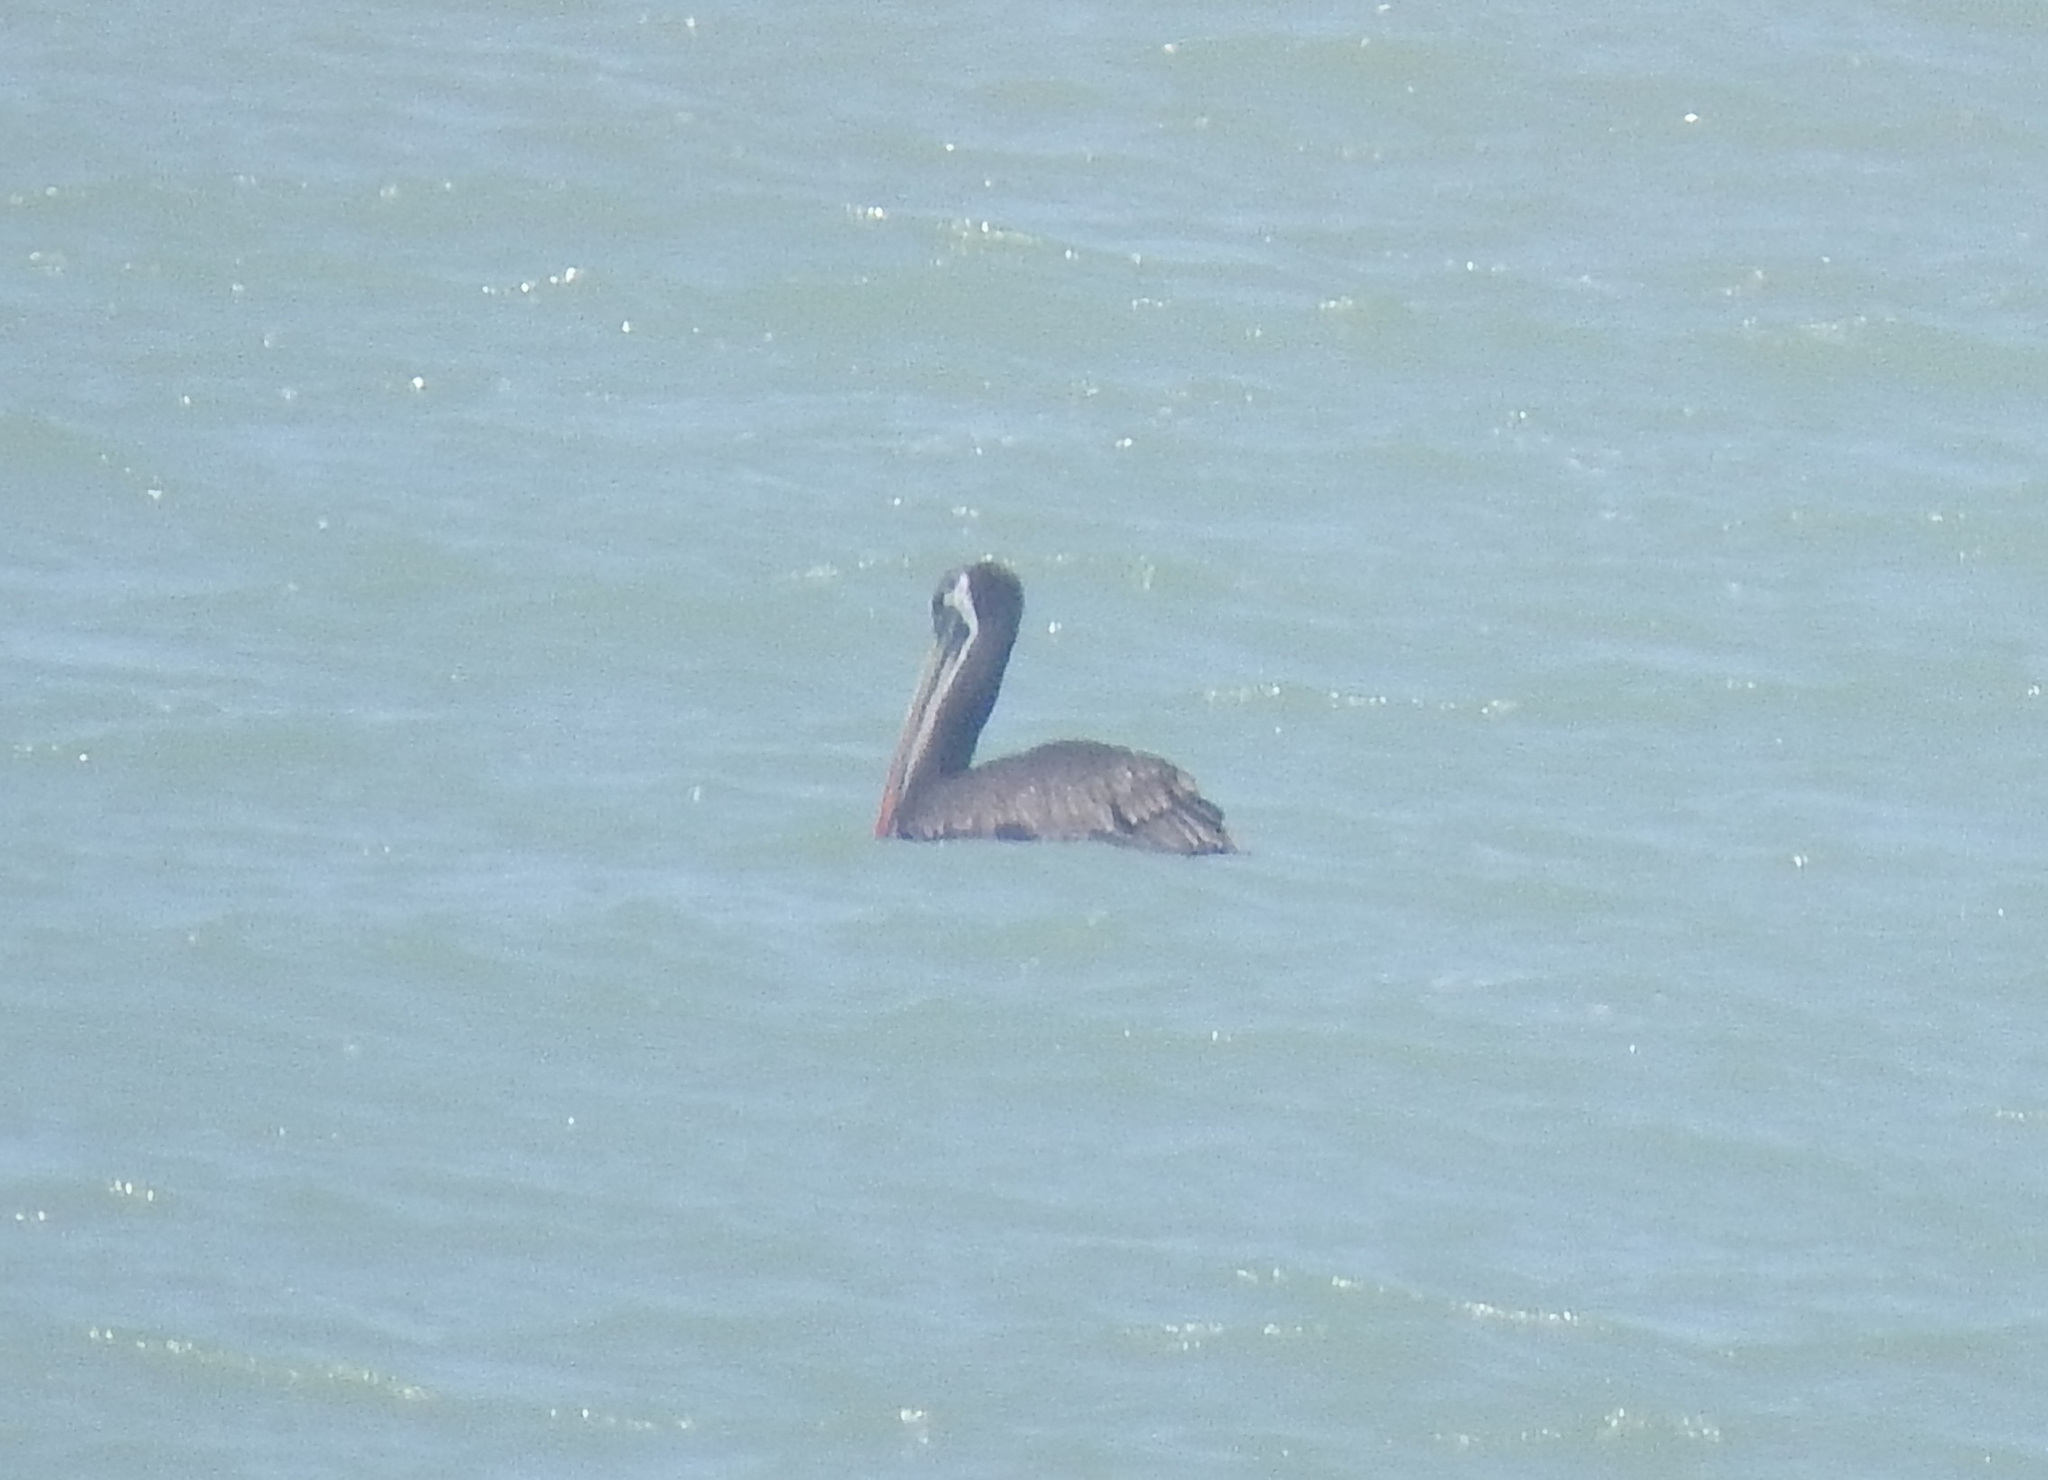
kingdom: Animalia
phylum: Chordata
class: Aves
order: Pelecaniformes
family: Pelecanidae
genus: Pelecanus
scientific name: Pelecanus thagus
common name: Peruvian pelican
